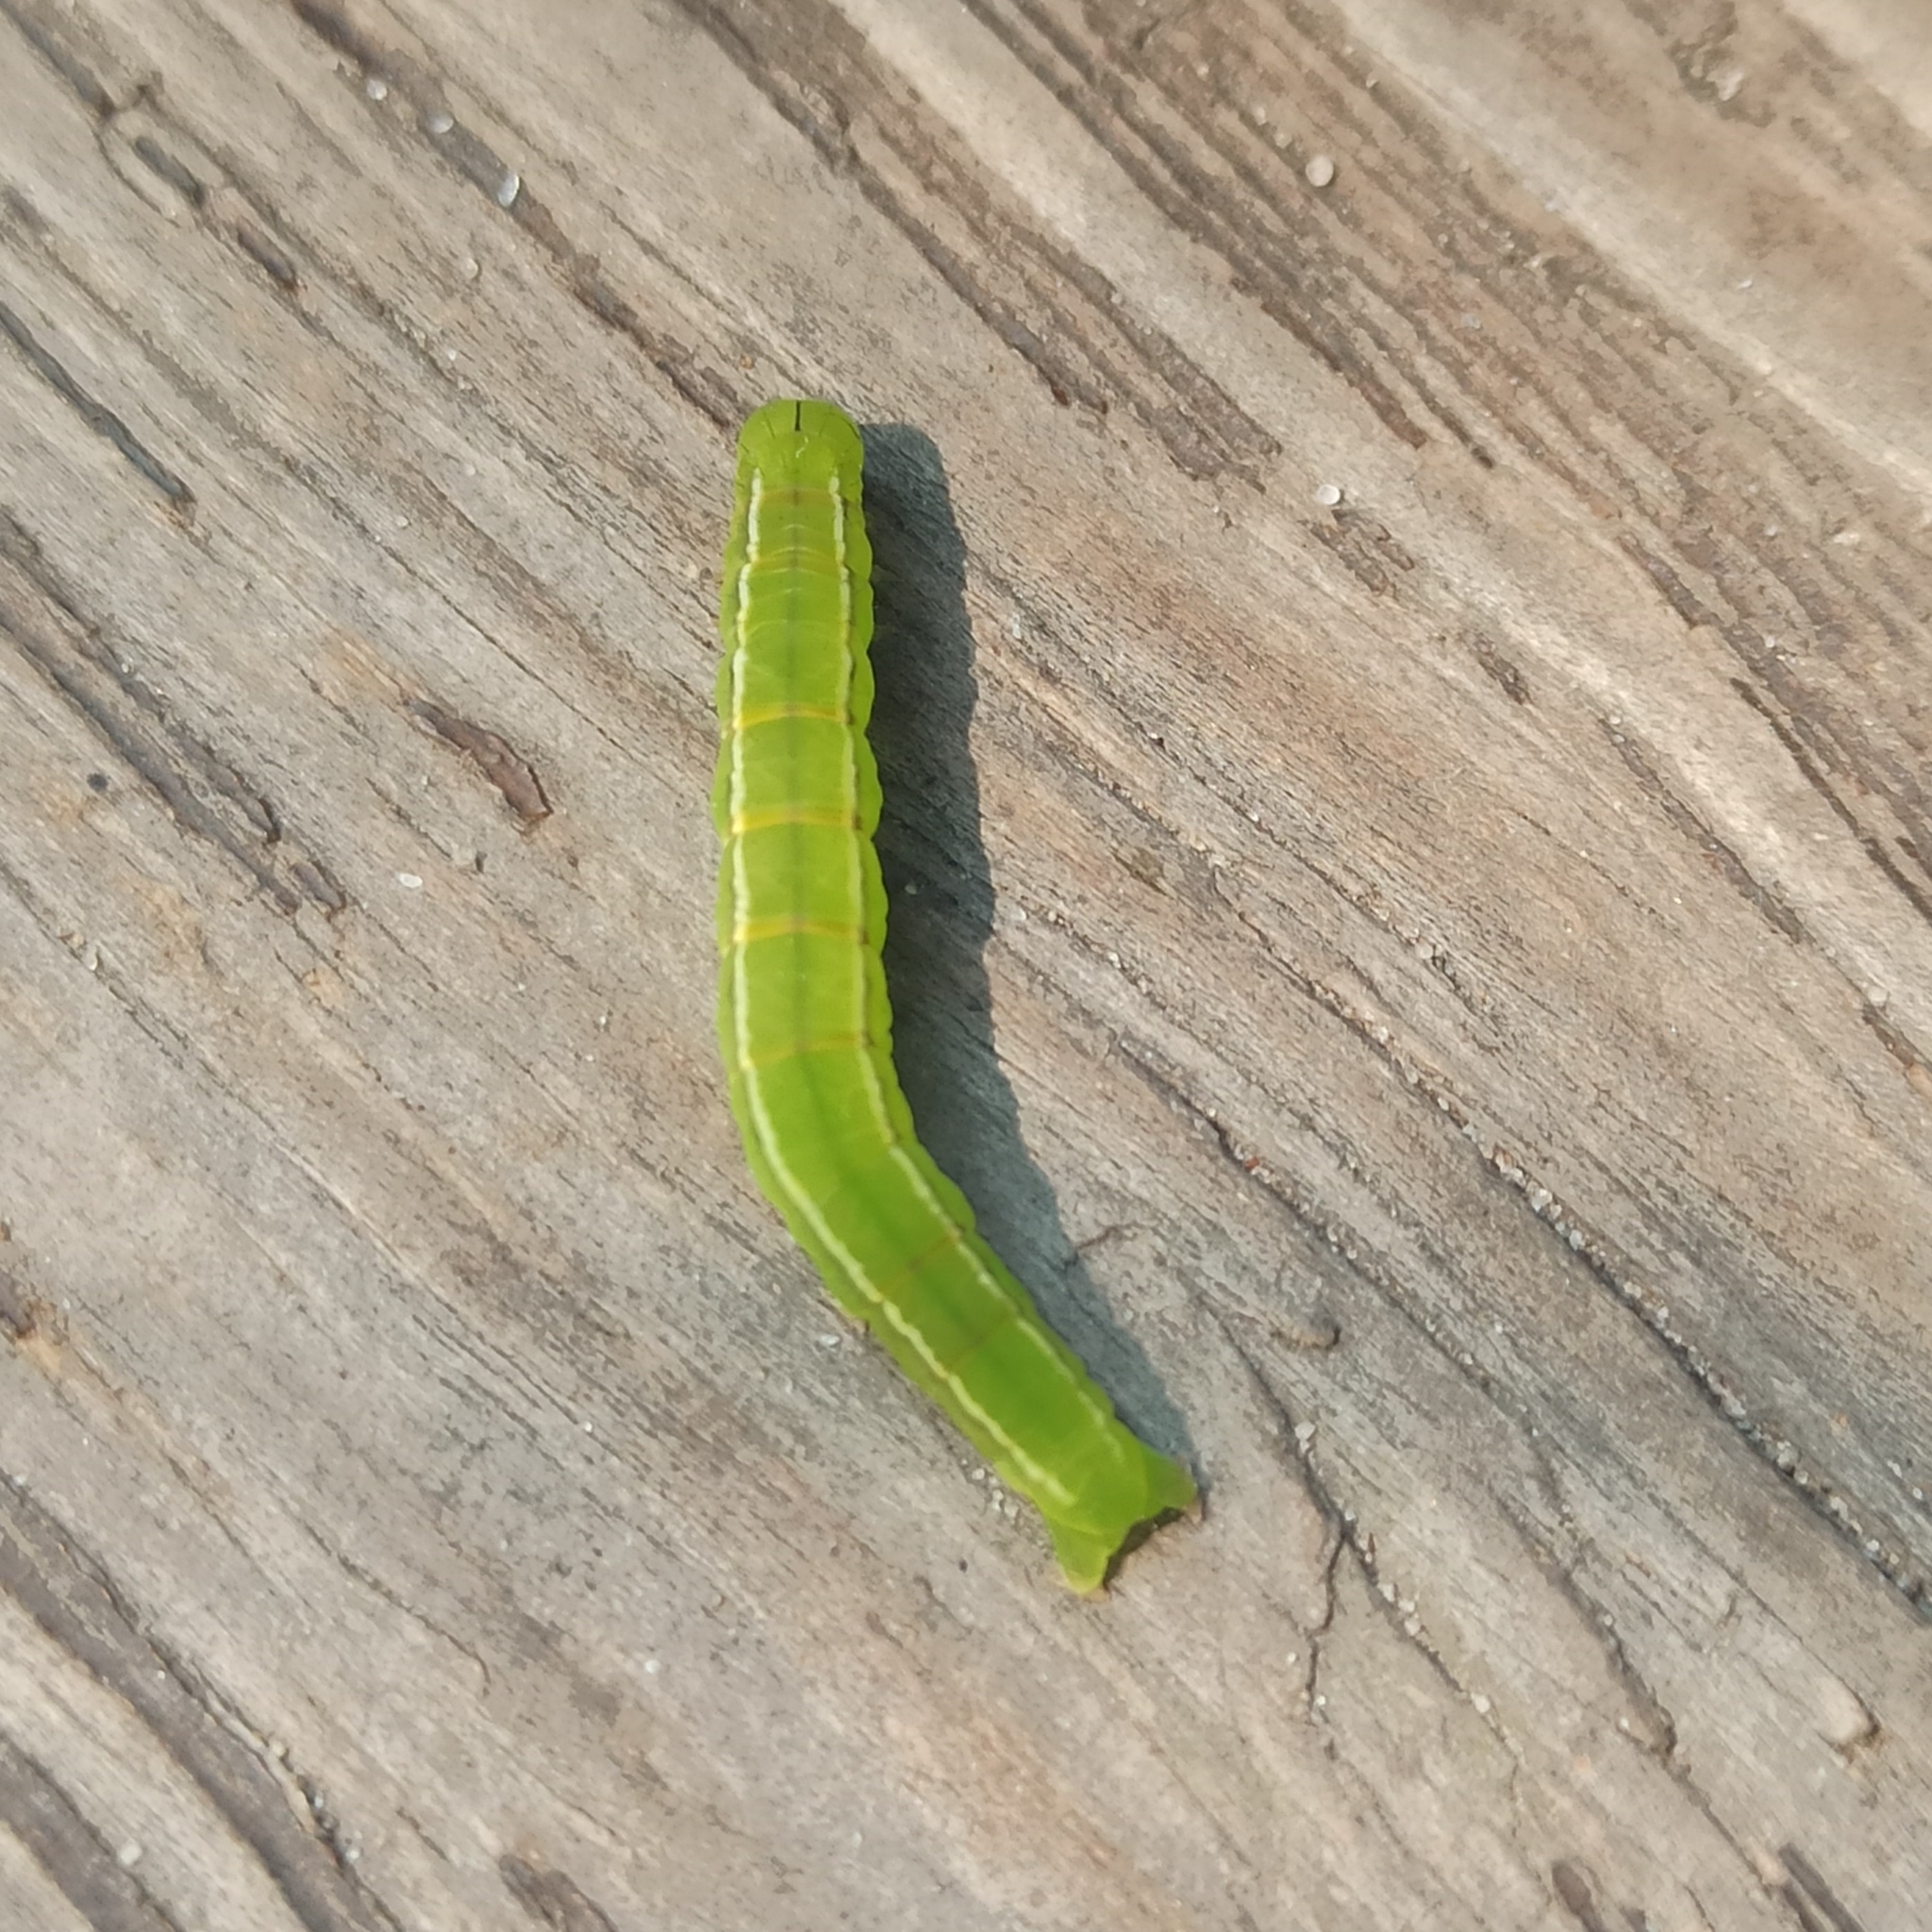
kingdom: Animalia
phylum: Arthropoda
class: Insecta
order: Lepidoptera
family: Erebidae
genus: Scoliopteryx
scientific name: Scoliopteryx libatrix
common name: Herald
